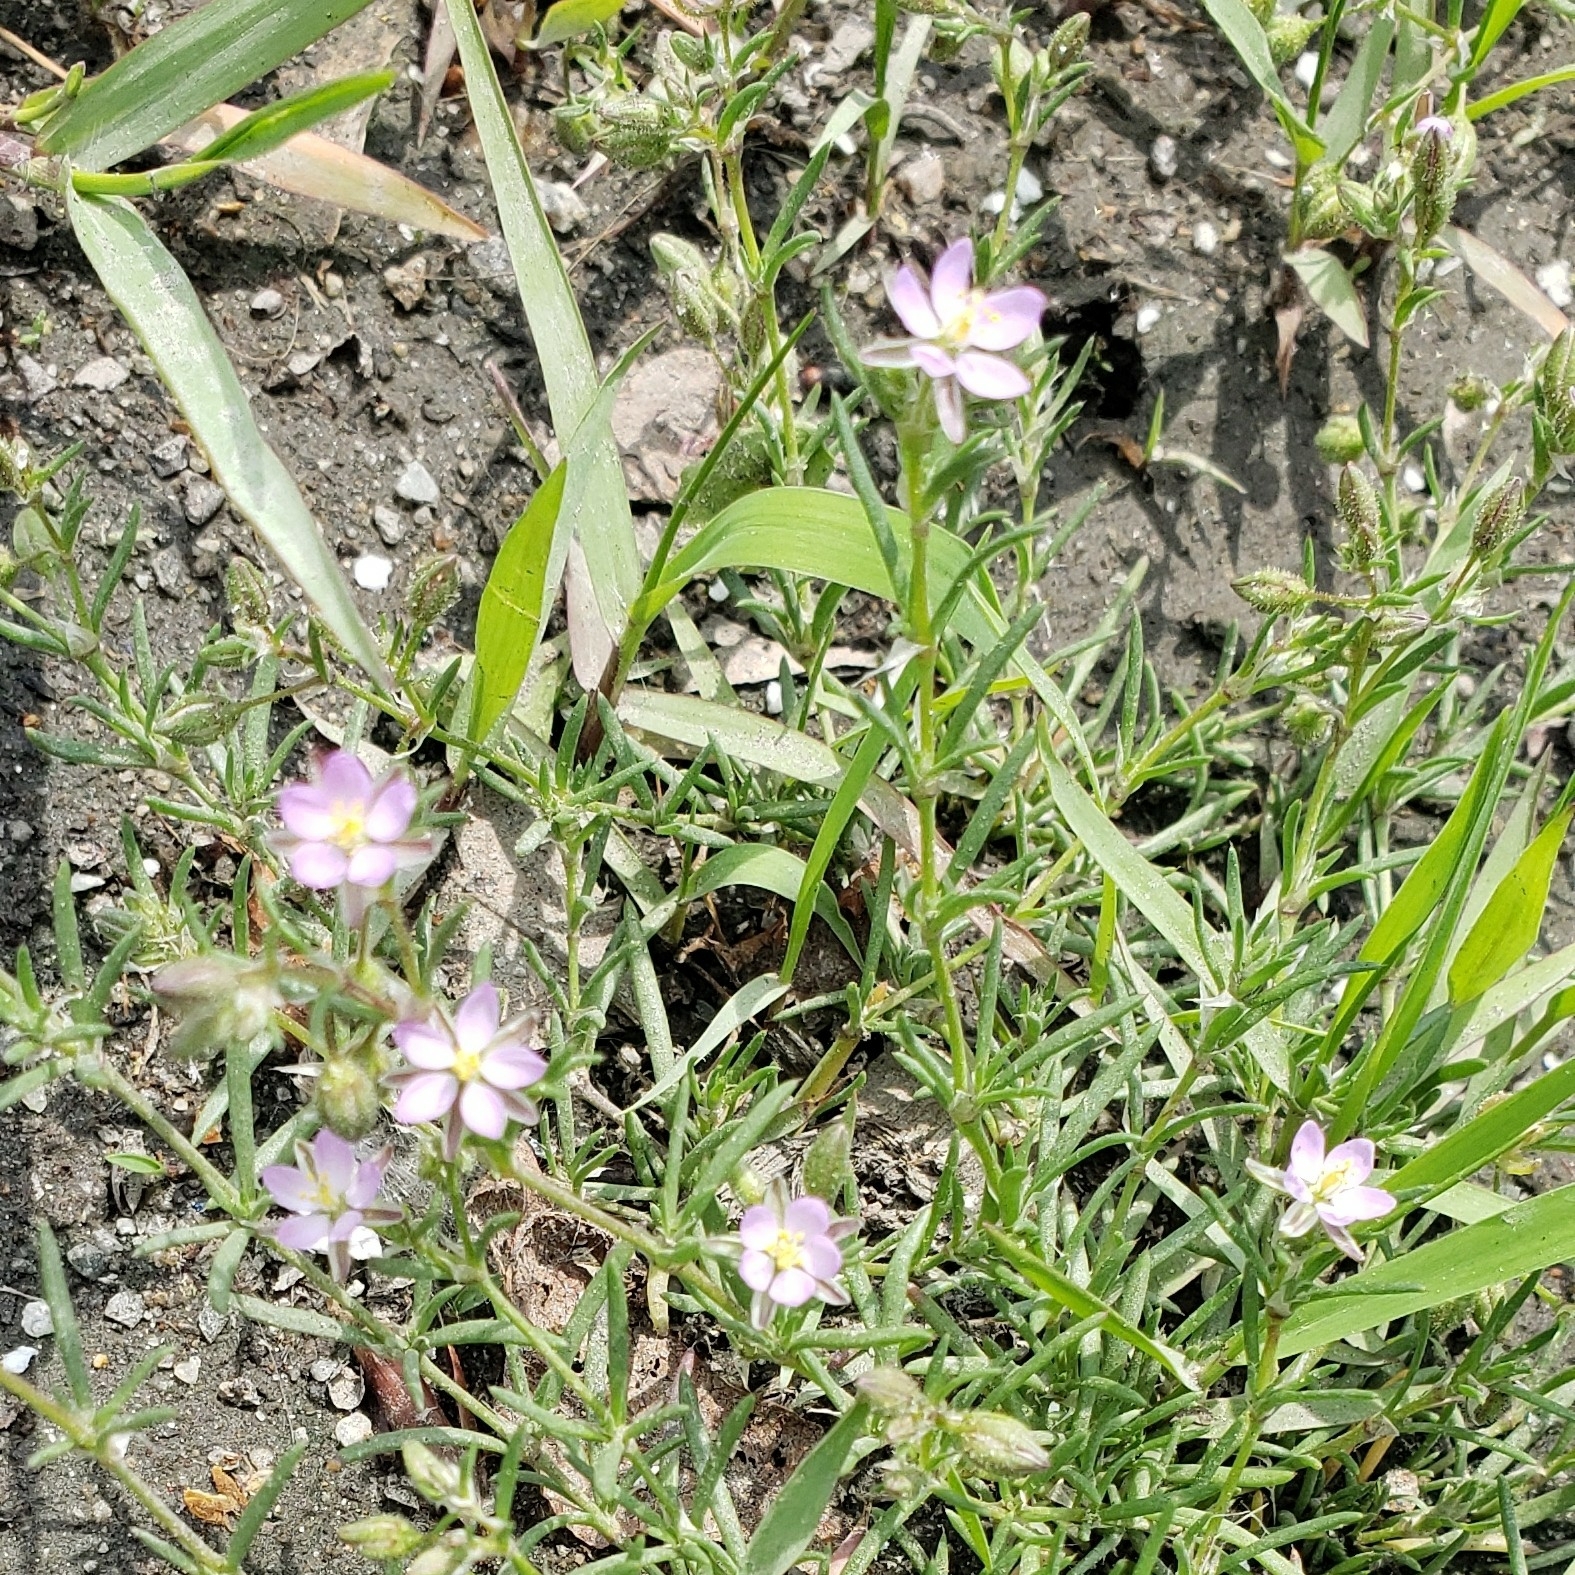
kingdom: Plantae
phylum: Tracheophyta
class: Magnoliopsida
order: Caryophyllales
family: Caryophyllaceae
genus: Spergularia
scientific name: Spergularia rubra
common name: Red sand-spurrey
